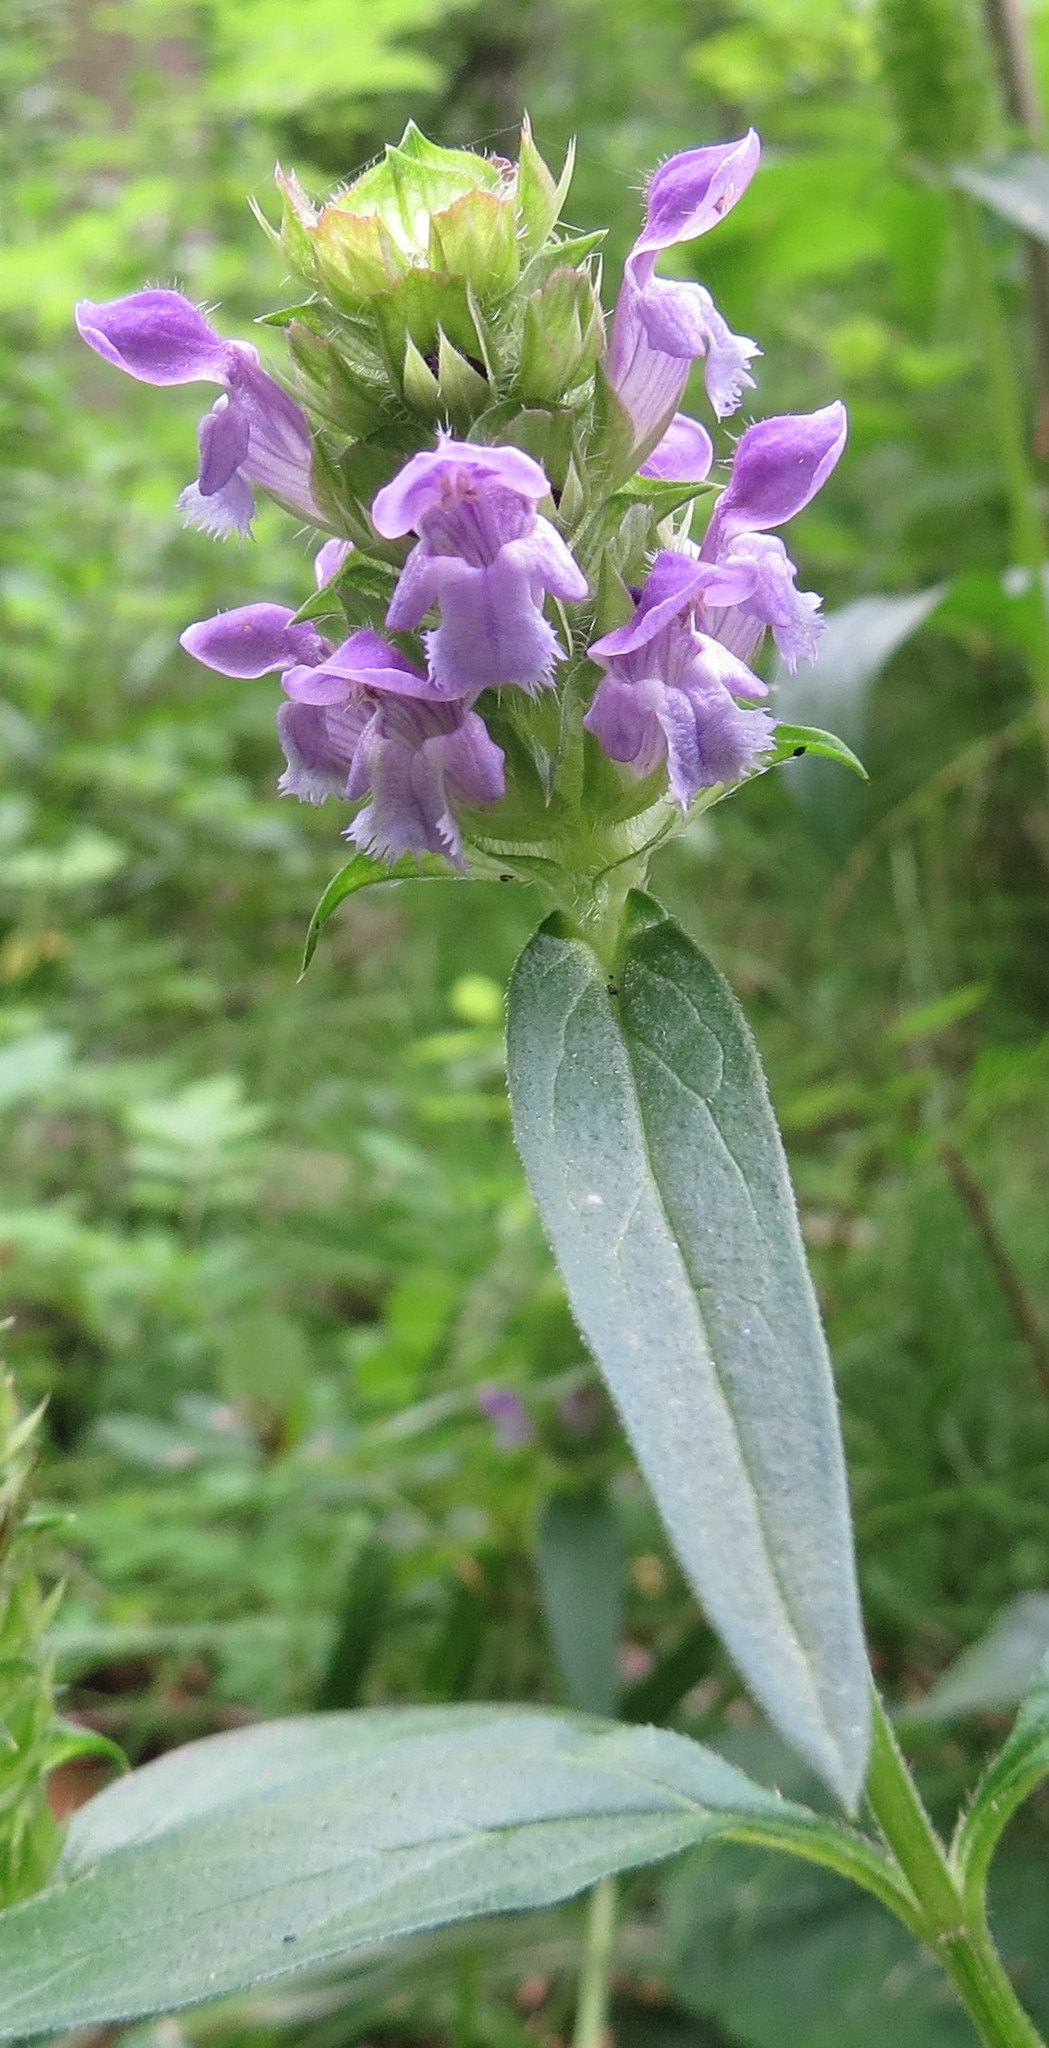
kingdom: Plantae
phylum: Tracheophyta
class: Magnoliopsida
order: Lamiales
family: Lamiaceae
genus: Prunella
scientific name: Prunella vulgaris
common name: Heal-all
